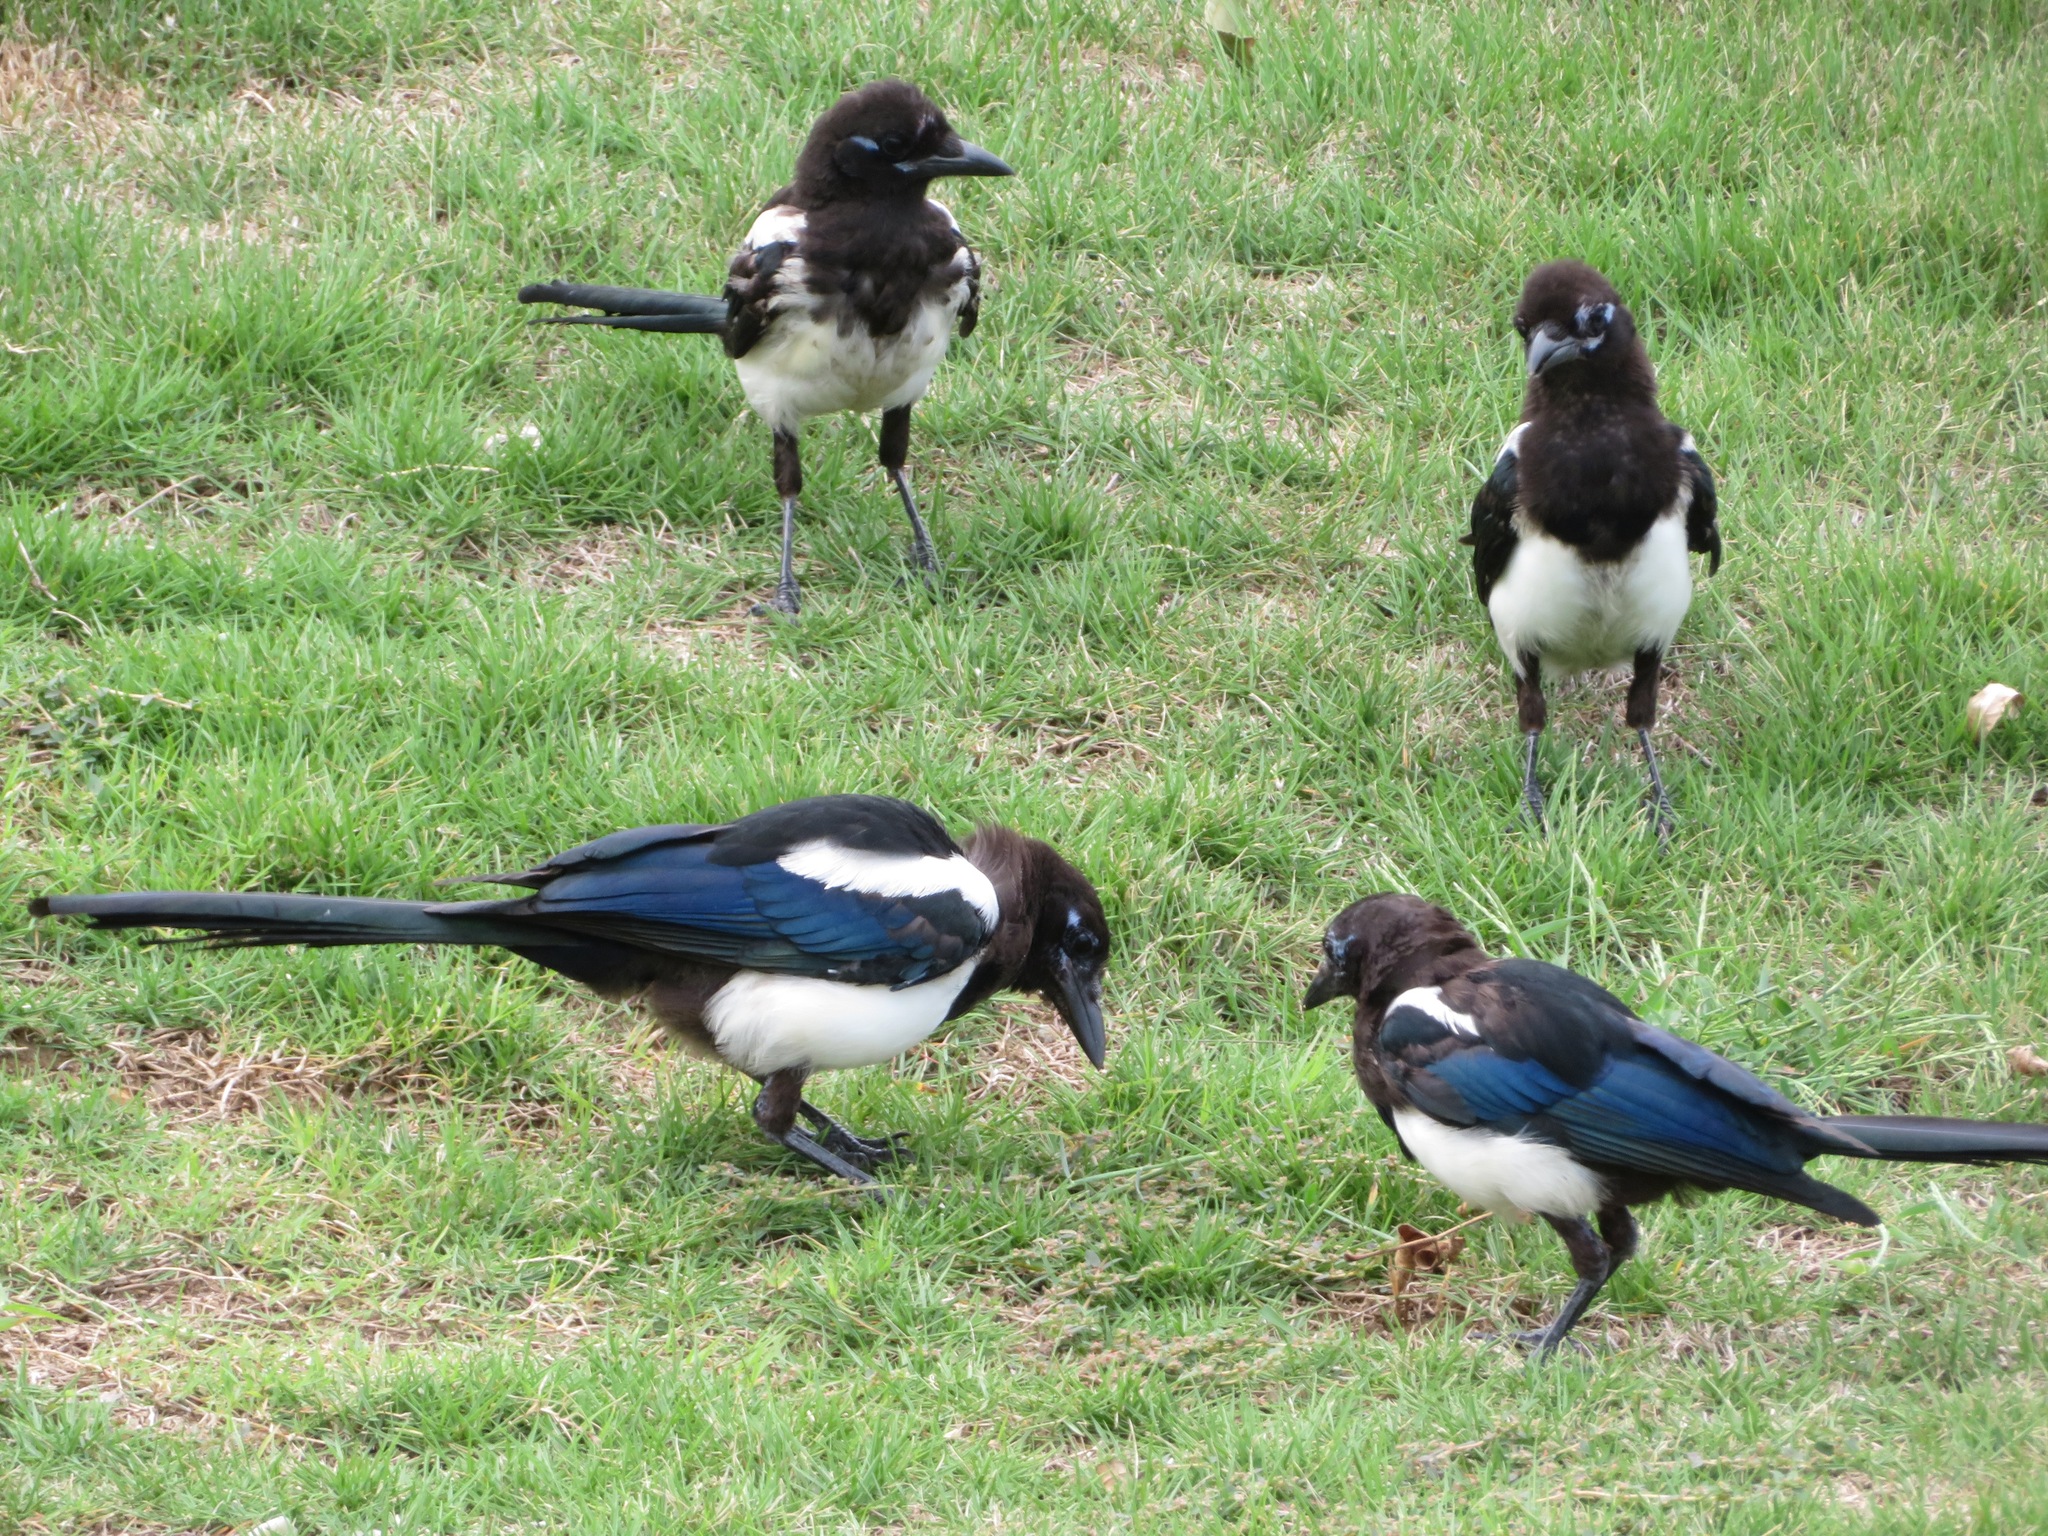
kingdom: Animalia
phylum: Chordata
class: Aves
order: Passeriformes
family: Corvidae
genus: Pica
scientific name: Pica serica
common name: Oriental magpie
